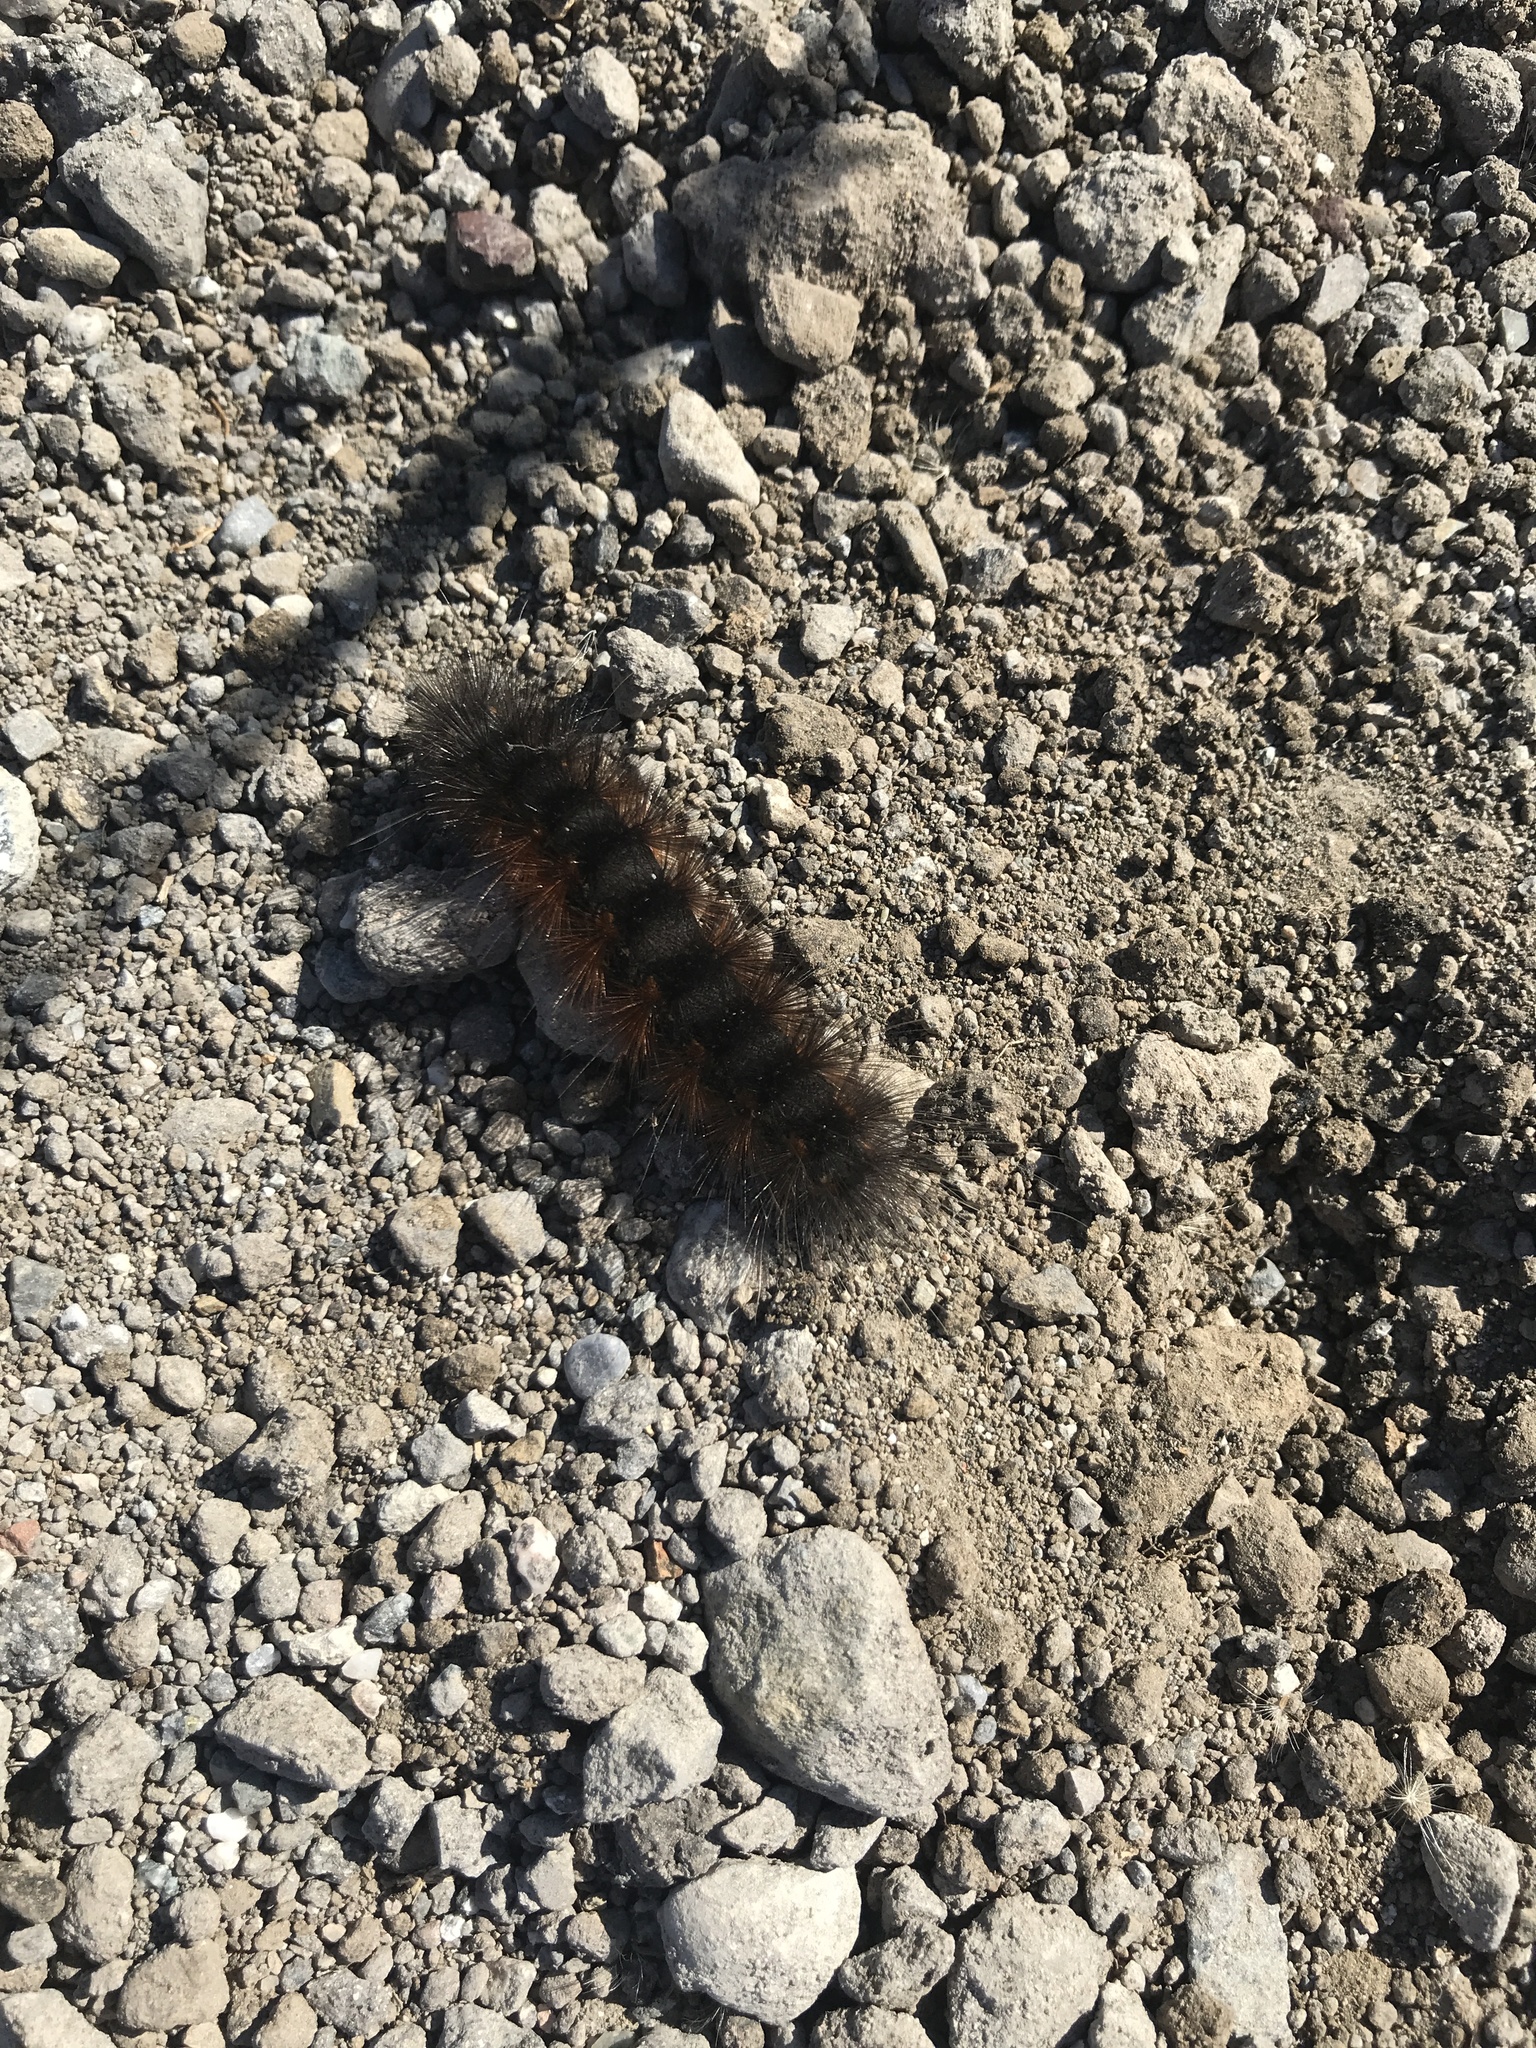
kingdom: Animalia
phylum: Arthropoda
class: Insecta
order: Lepidoptera
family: Erebidae
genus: Estigmene
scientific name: Estigmene acrea
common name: Salt marsh moth
